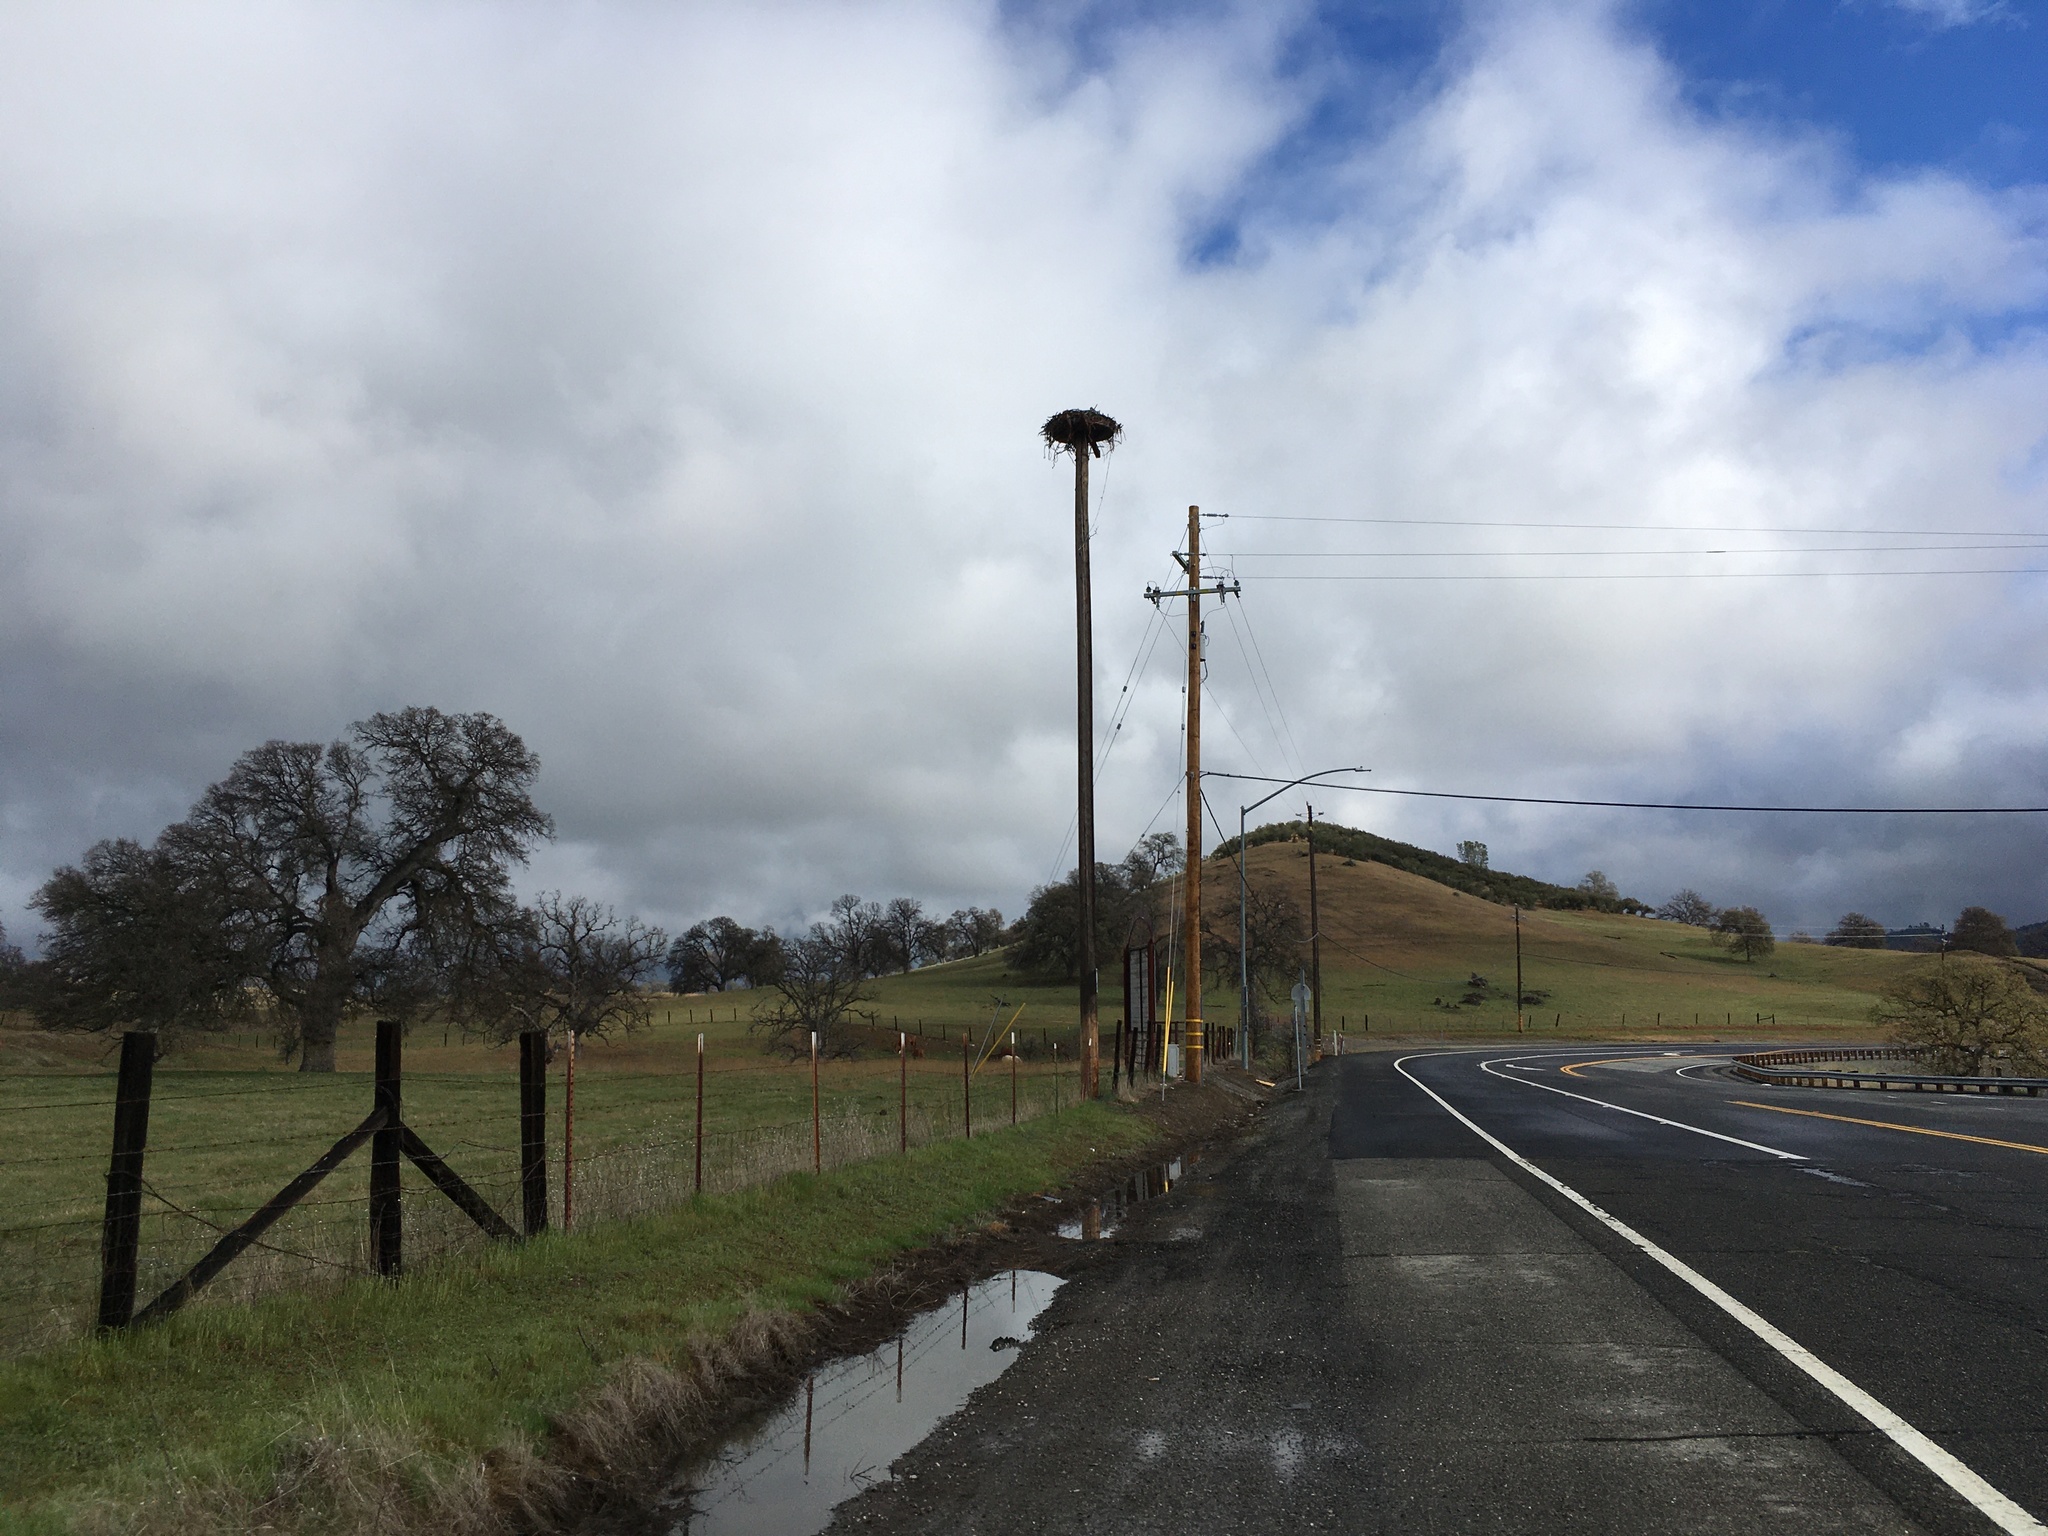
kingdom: Animalia
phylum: Chordata
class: Aves
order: Accipitriformes
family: Pandionidae
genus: Pandion
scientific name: Pandion haliaetus
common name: Osprey
